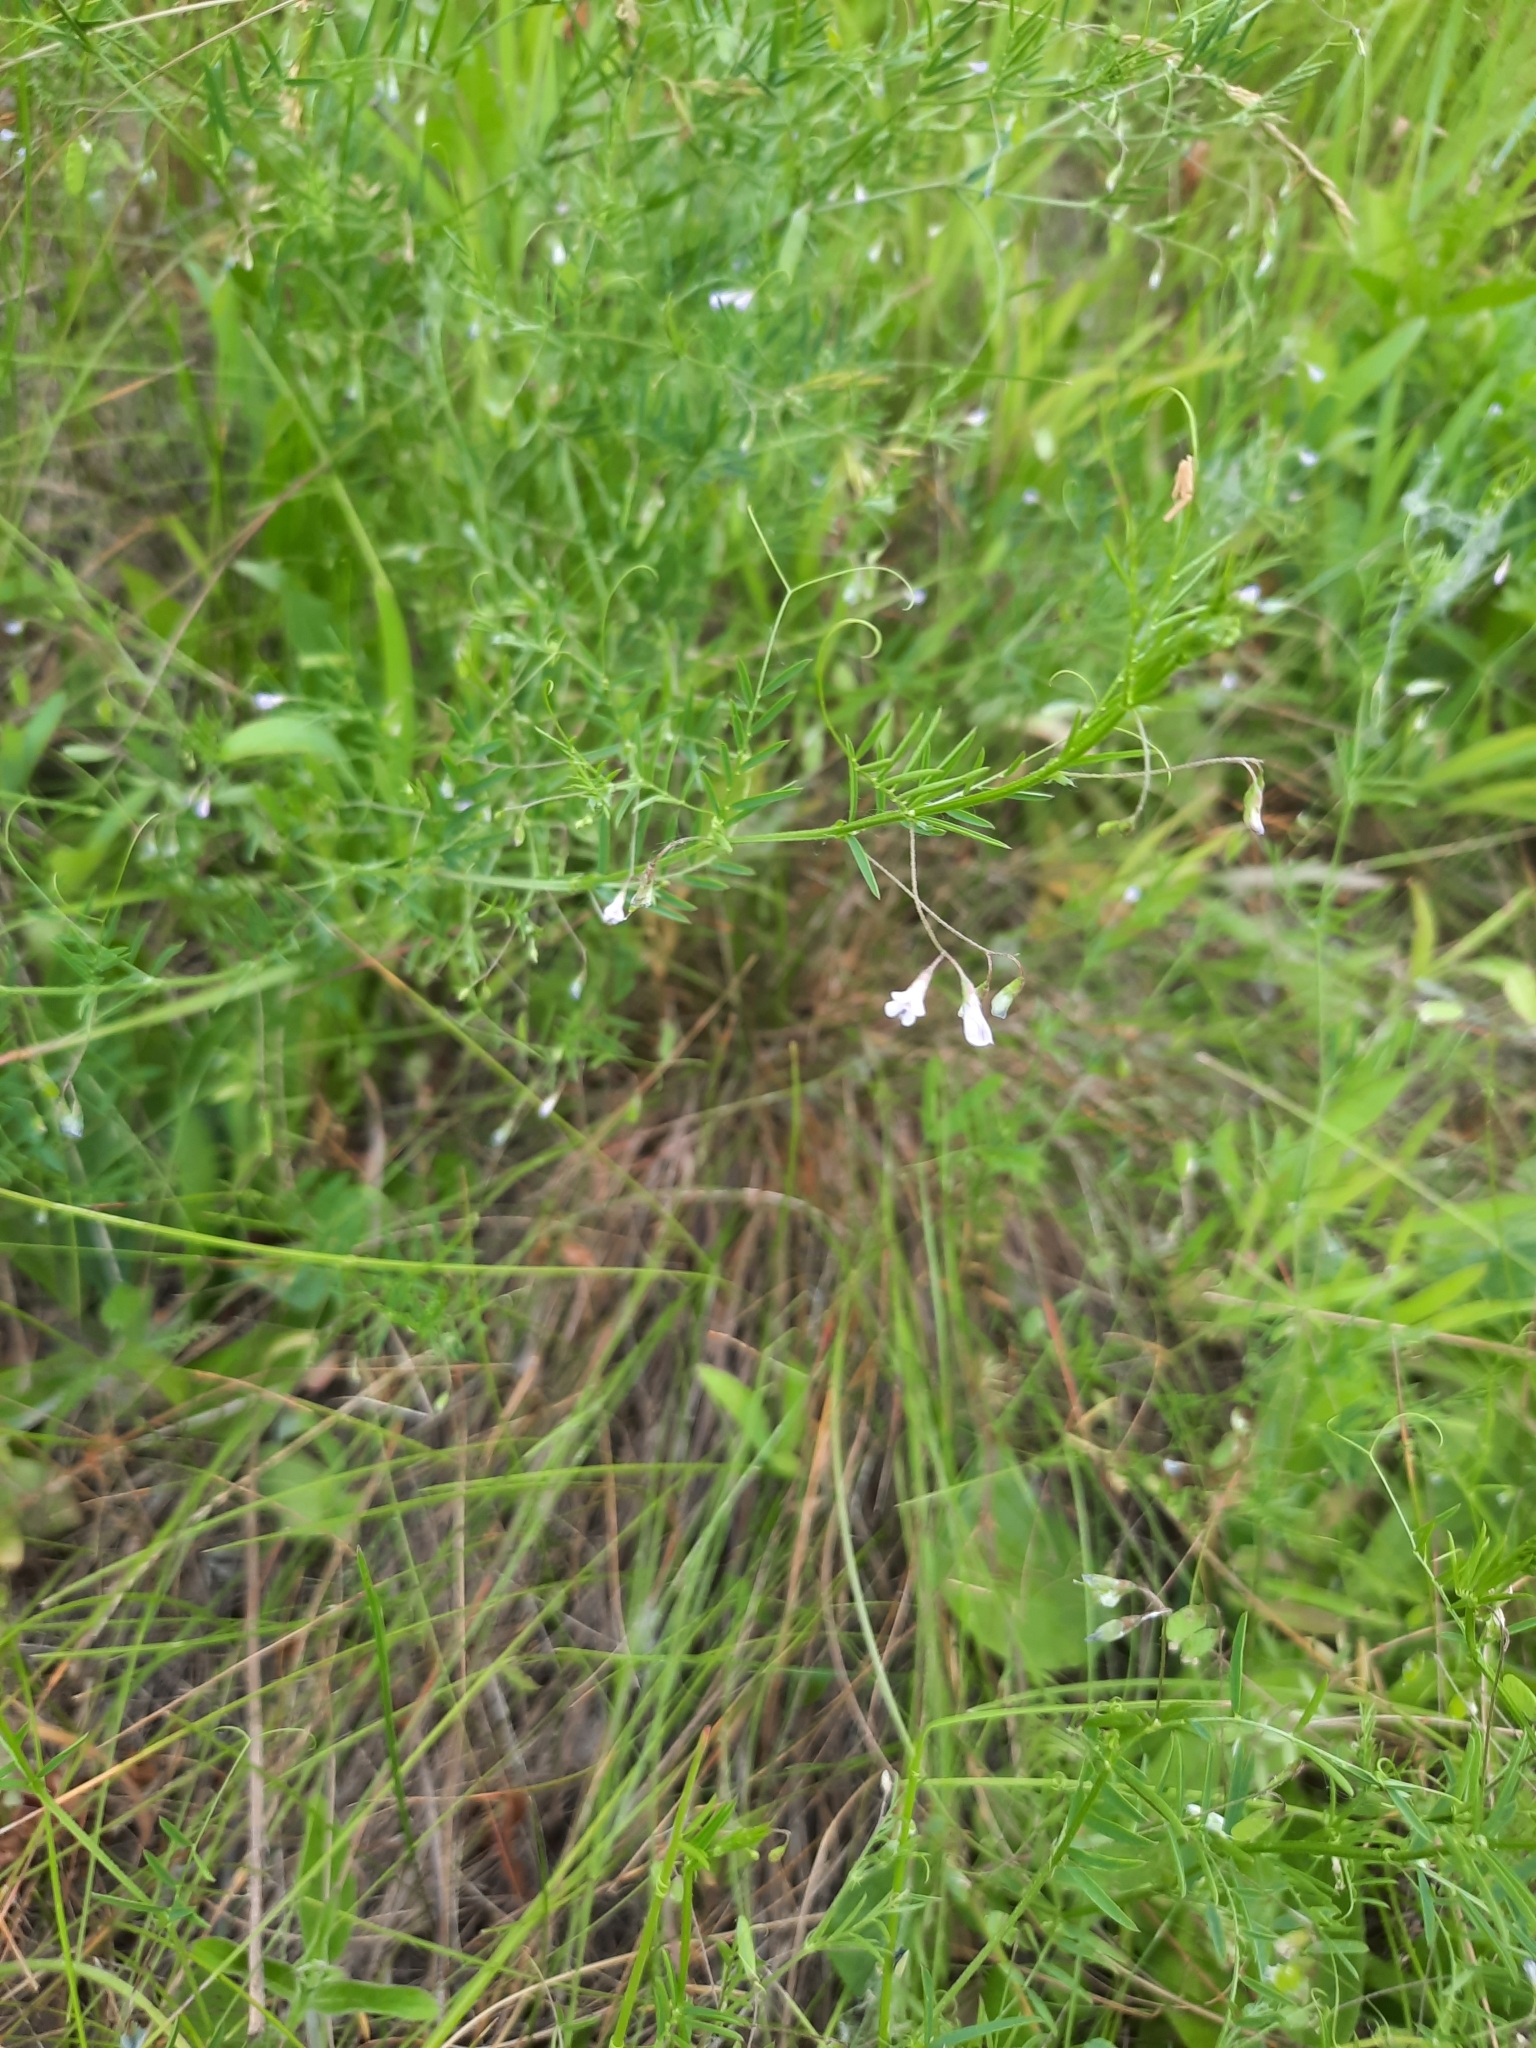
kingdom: Plantae
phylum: Tracheophyta
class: Magnoliopsida
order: Fabales
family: Fabaceae
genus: Vicia
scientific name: Vicia tetrasperma
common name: Smooth tare
